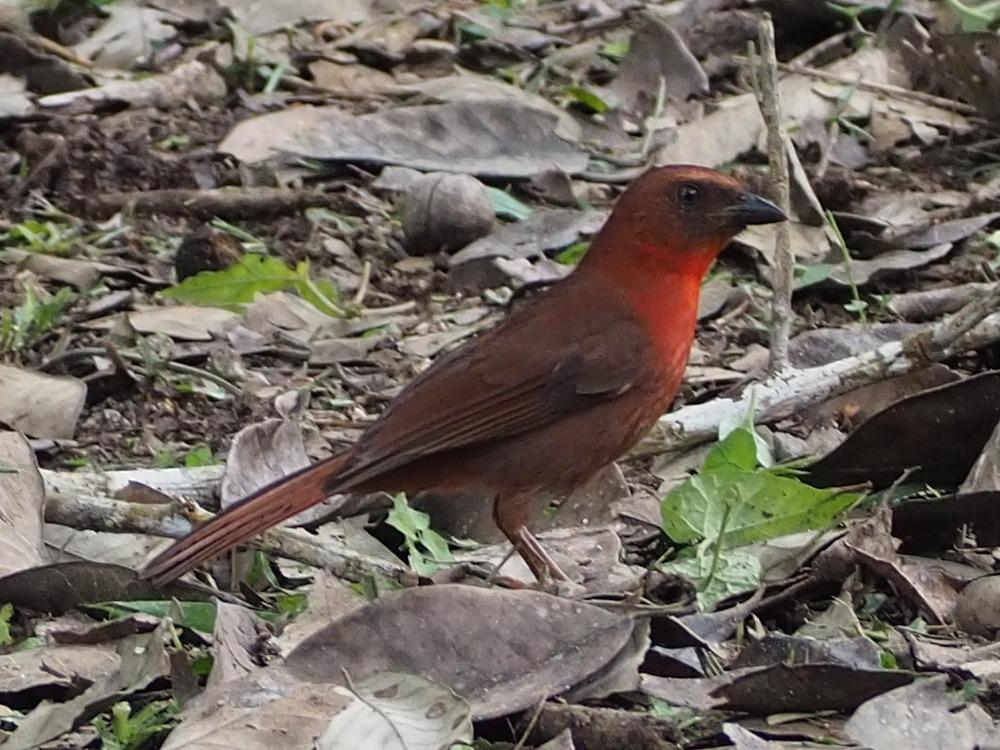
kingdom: Animalia
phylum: Chordata
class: Aves
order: Passeriformes
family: Cardinalidae
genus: Habia
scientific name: Habia fuscicauda
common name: Red-throated ant-tanager
